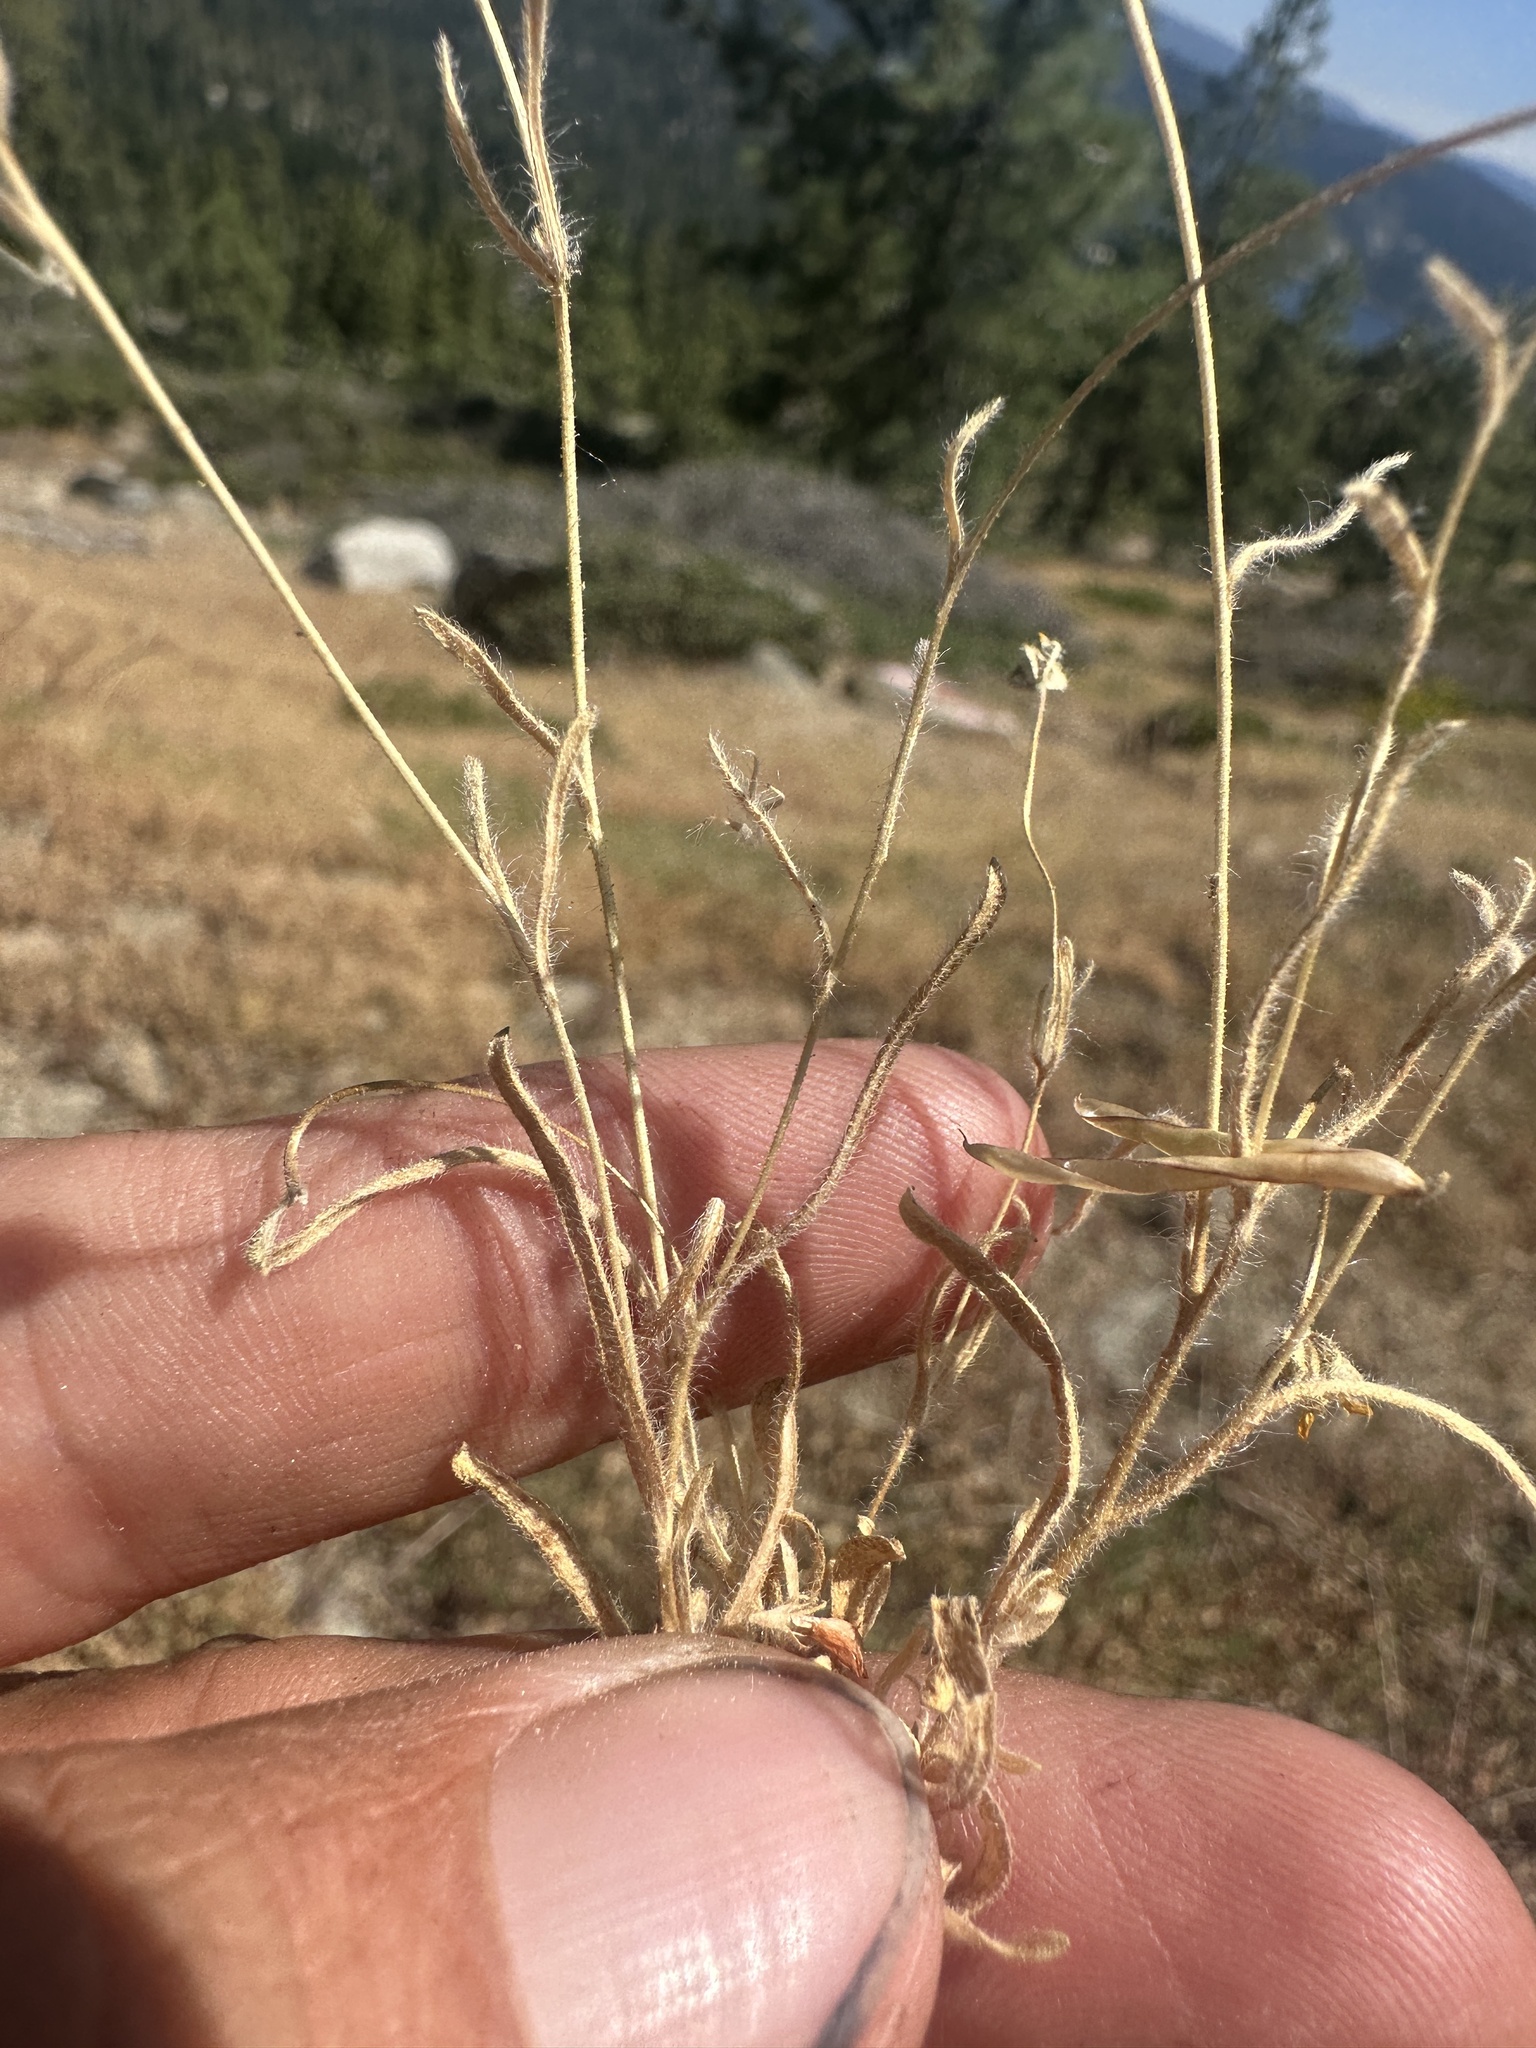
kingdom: Plantae
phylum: Tracheophyta
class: Magnoliopsida
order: Asterales
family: Asteraceae
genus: Jensia
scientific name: Jensia yosemitana
